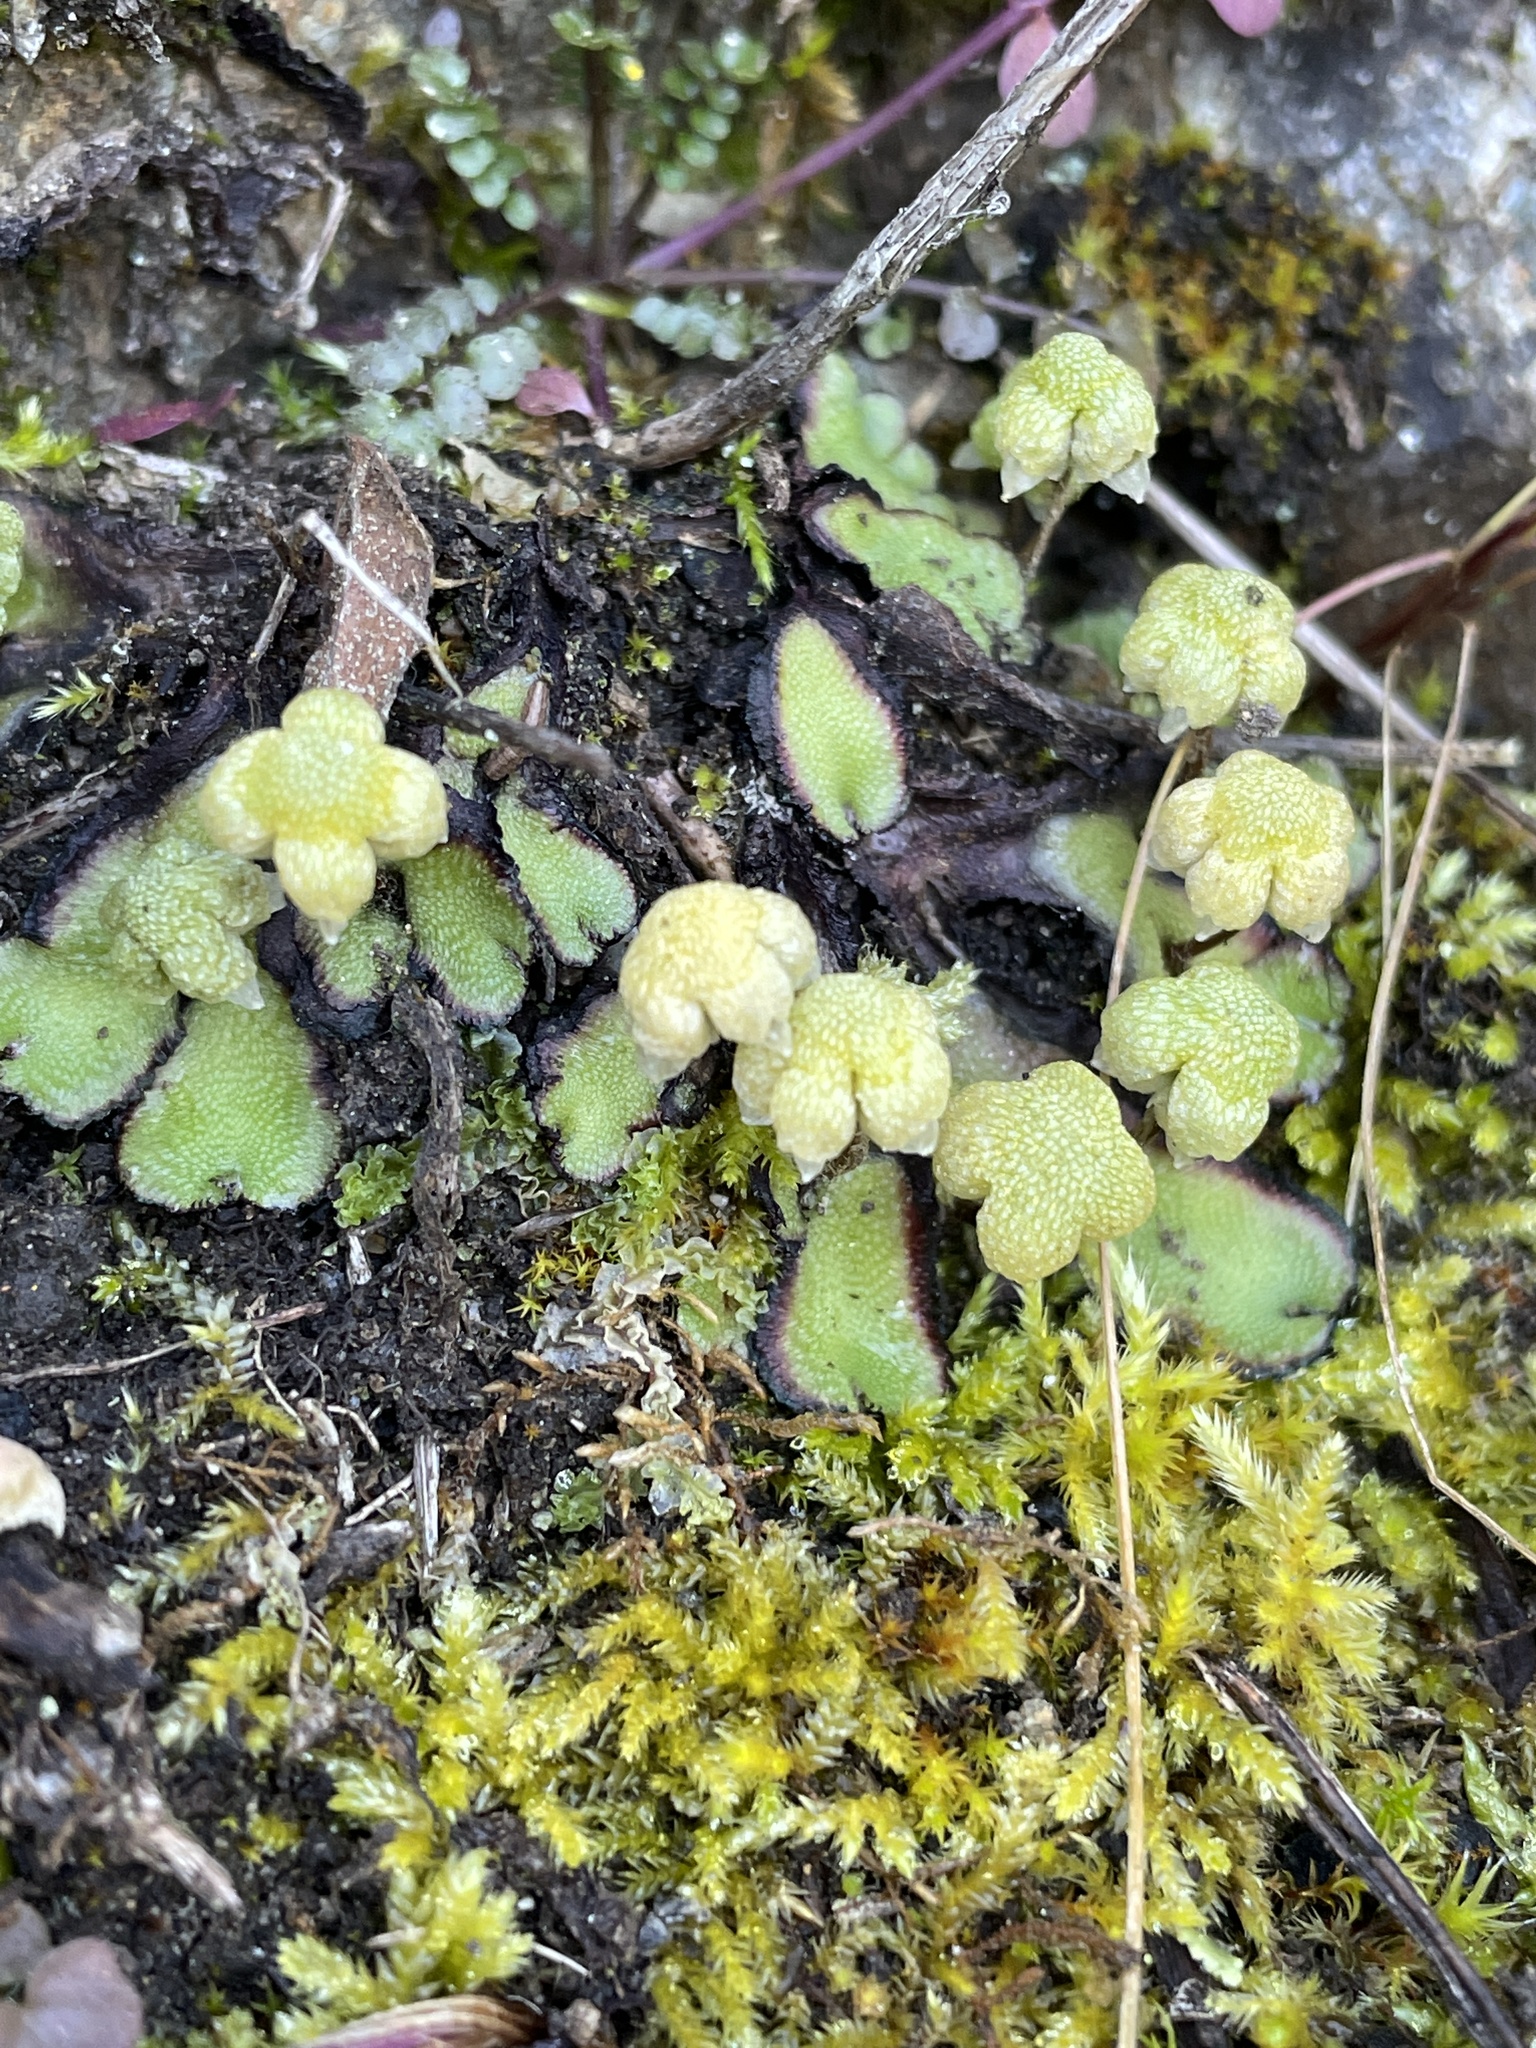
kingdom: Plantae
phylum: Marchantiophyta
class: Marchantiopsida
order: Marchantiales
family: Aytoniaceae
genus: Asterella
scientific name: Asterella californica
